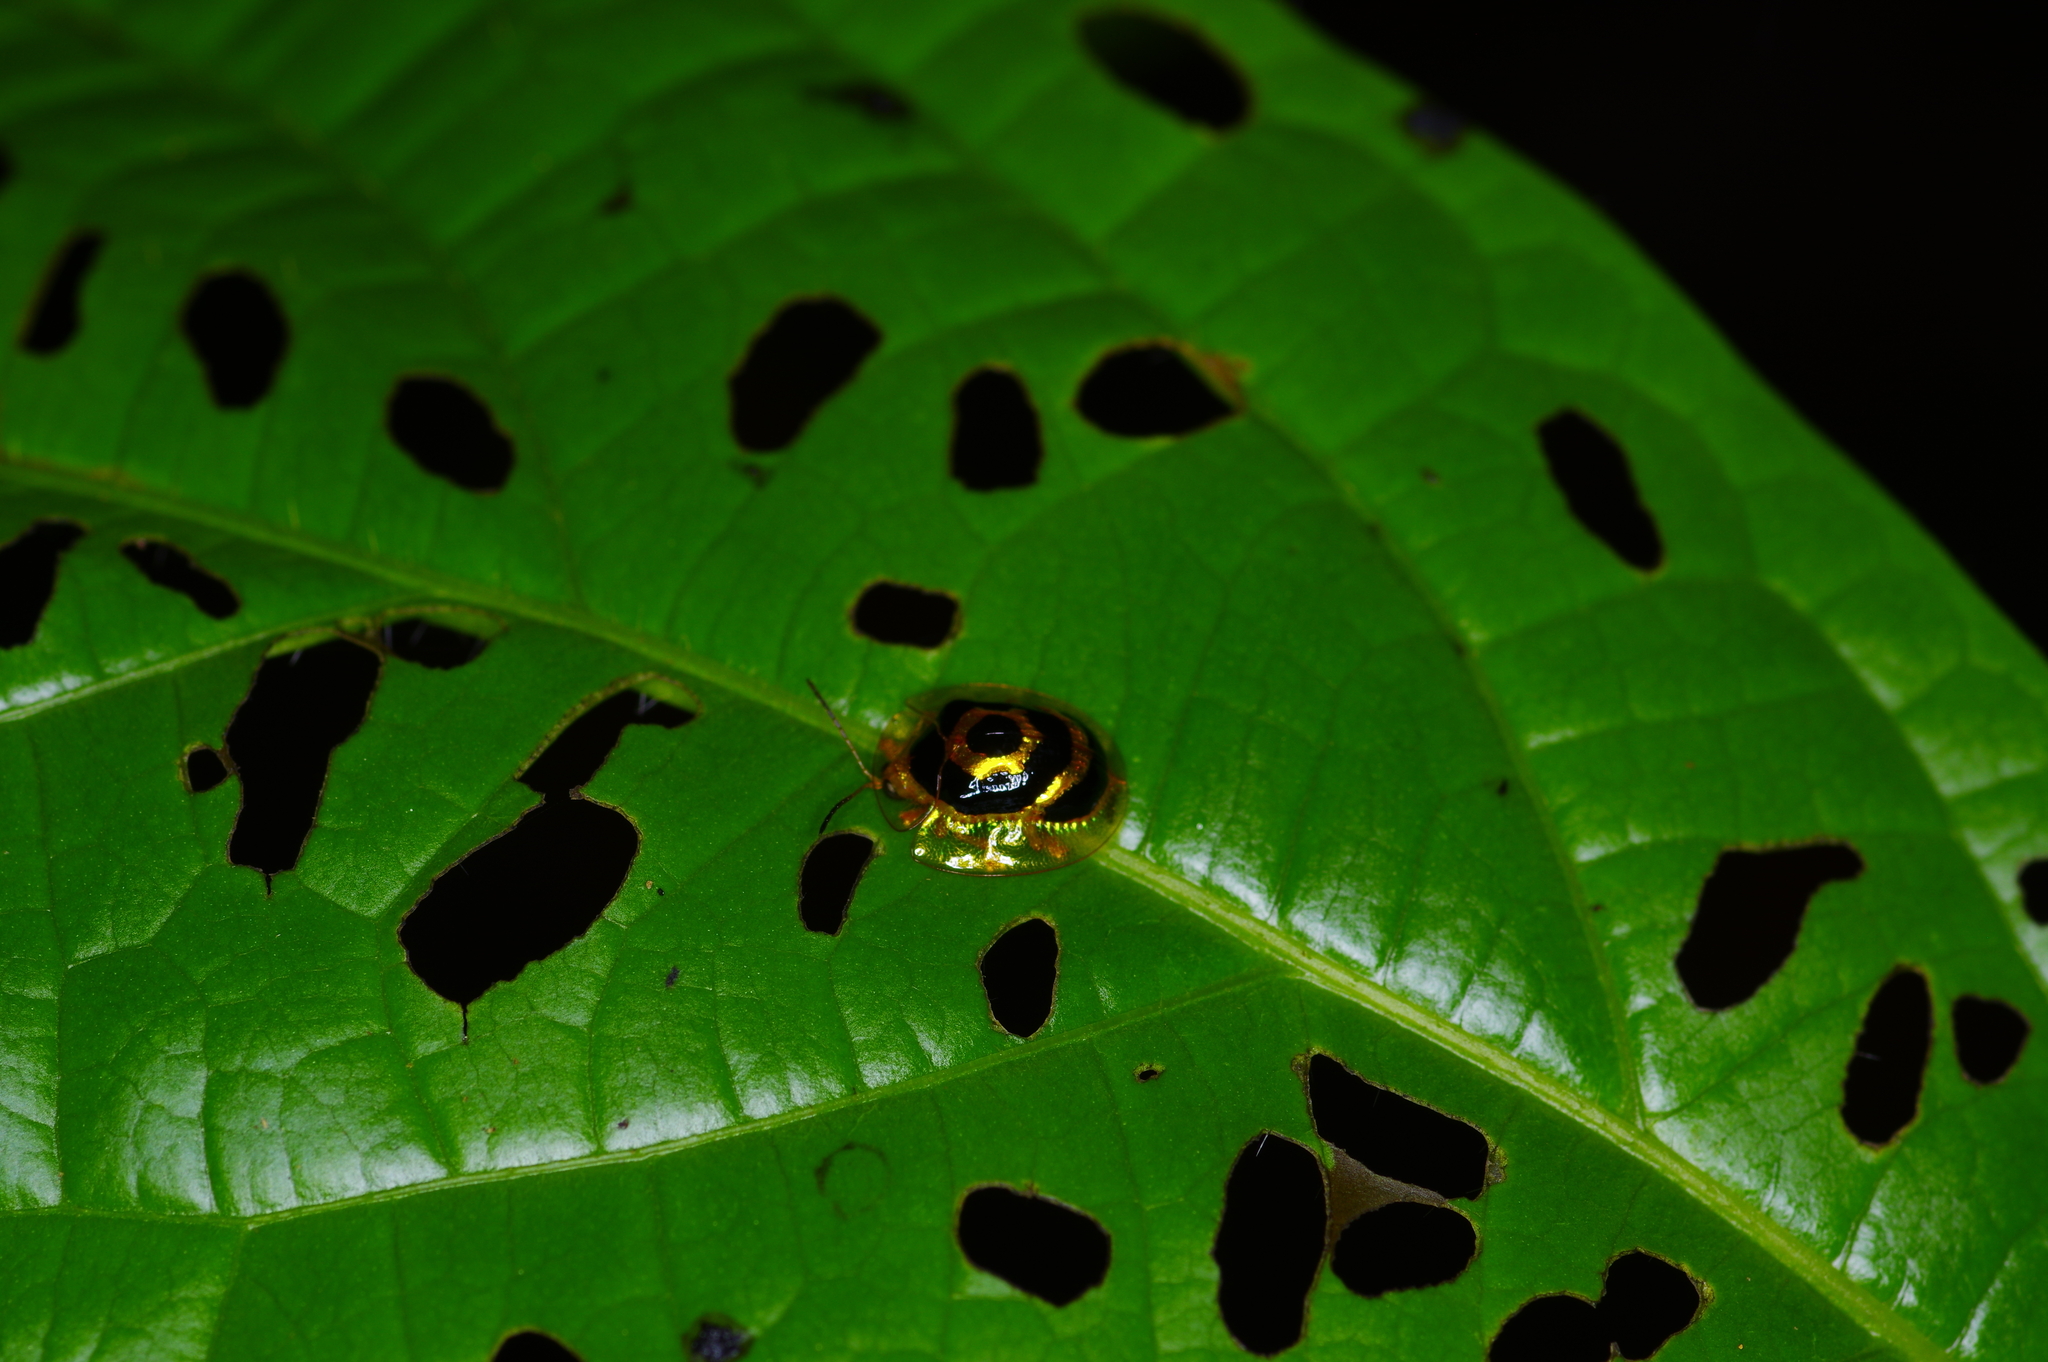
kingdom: Animalia
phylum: Arthropoda
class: Insecta
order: Coleoptera
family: Chrysomelidae
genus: Ischnocodia
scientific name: Ischnocodia annulus
